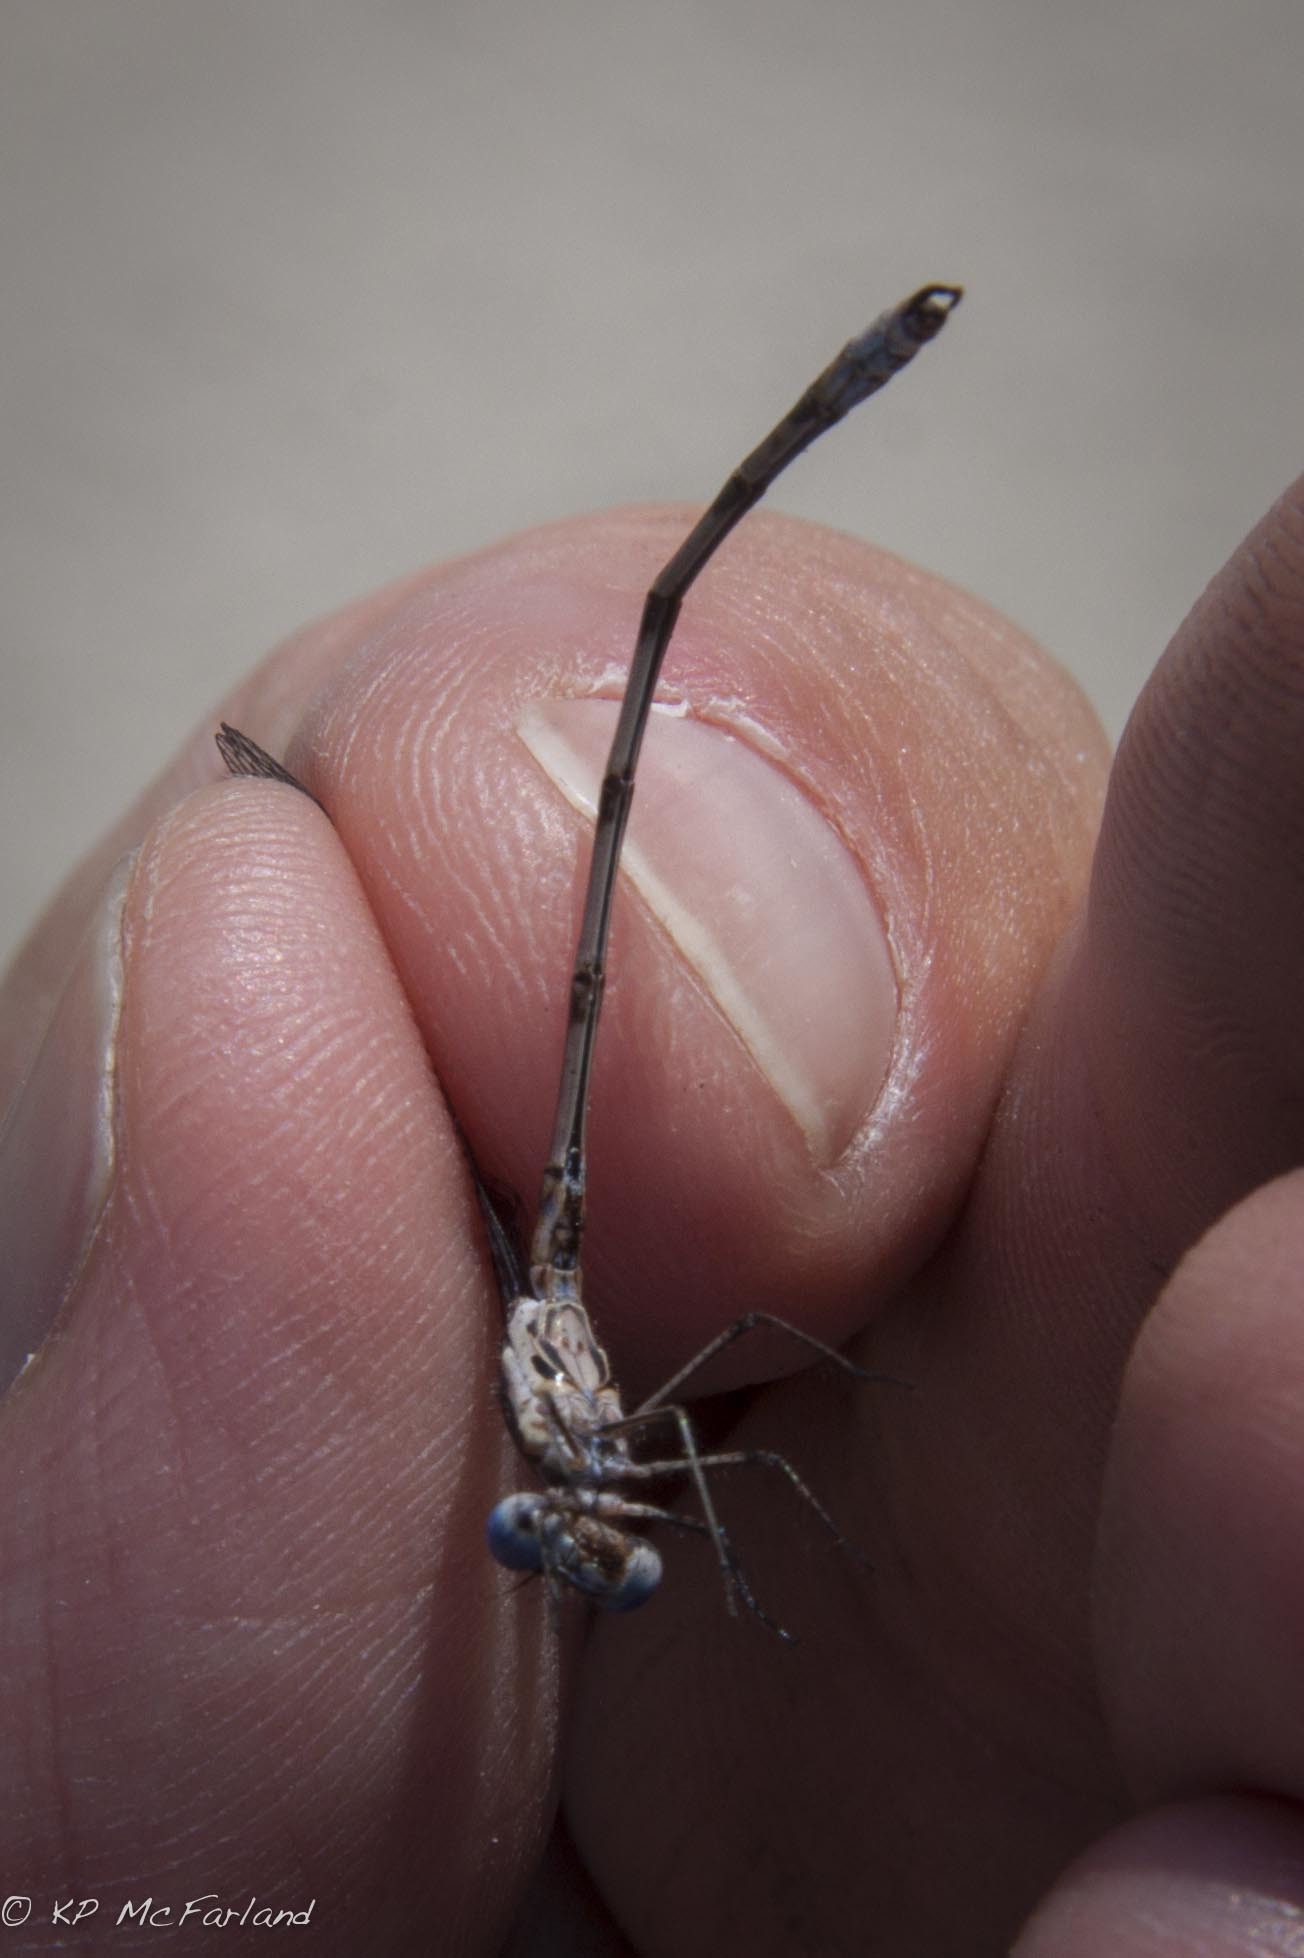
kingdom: Animalia
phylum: Arthropoda
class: Insecta
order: Odonata
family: Lestidae
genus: Lestes
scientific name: Lestes congener
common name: Spotted spreadwing
